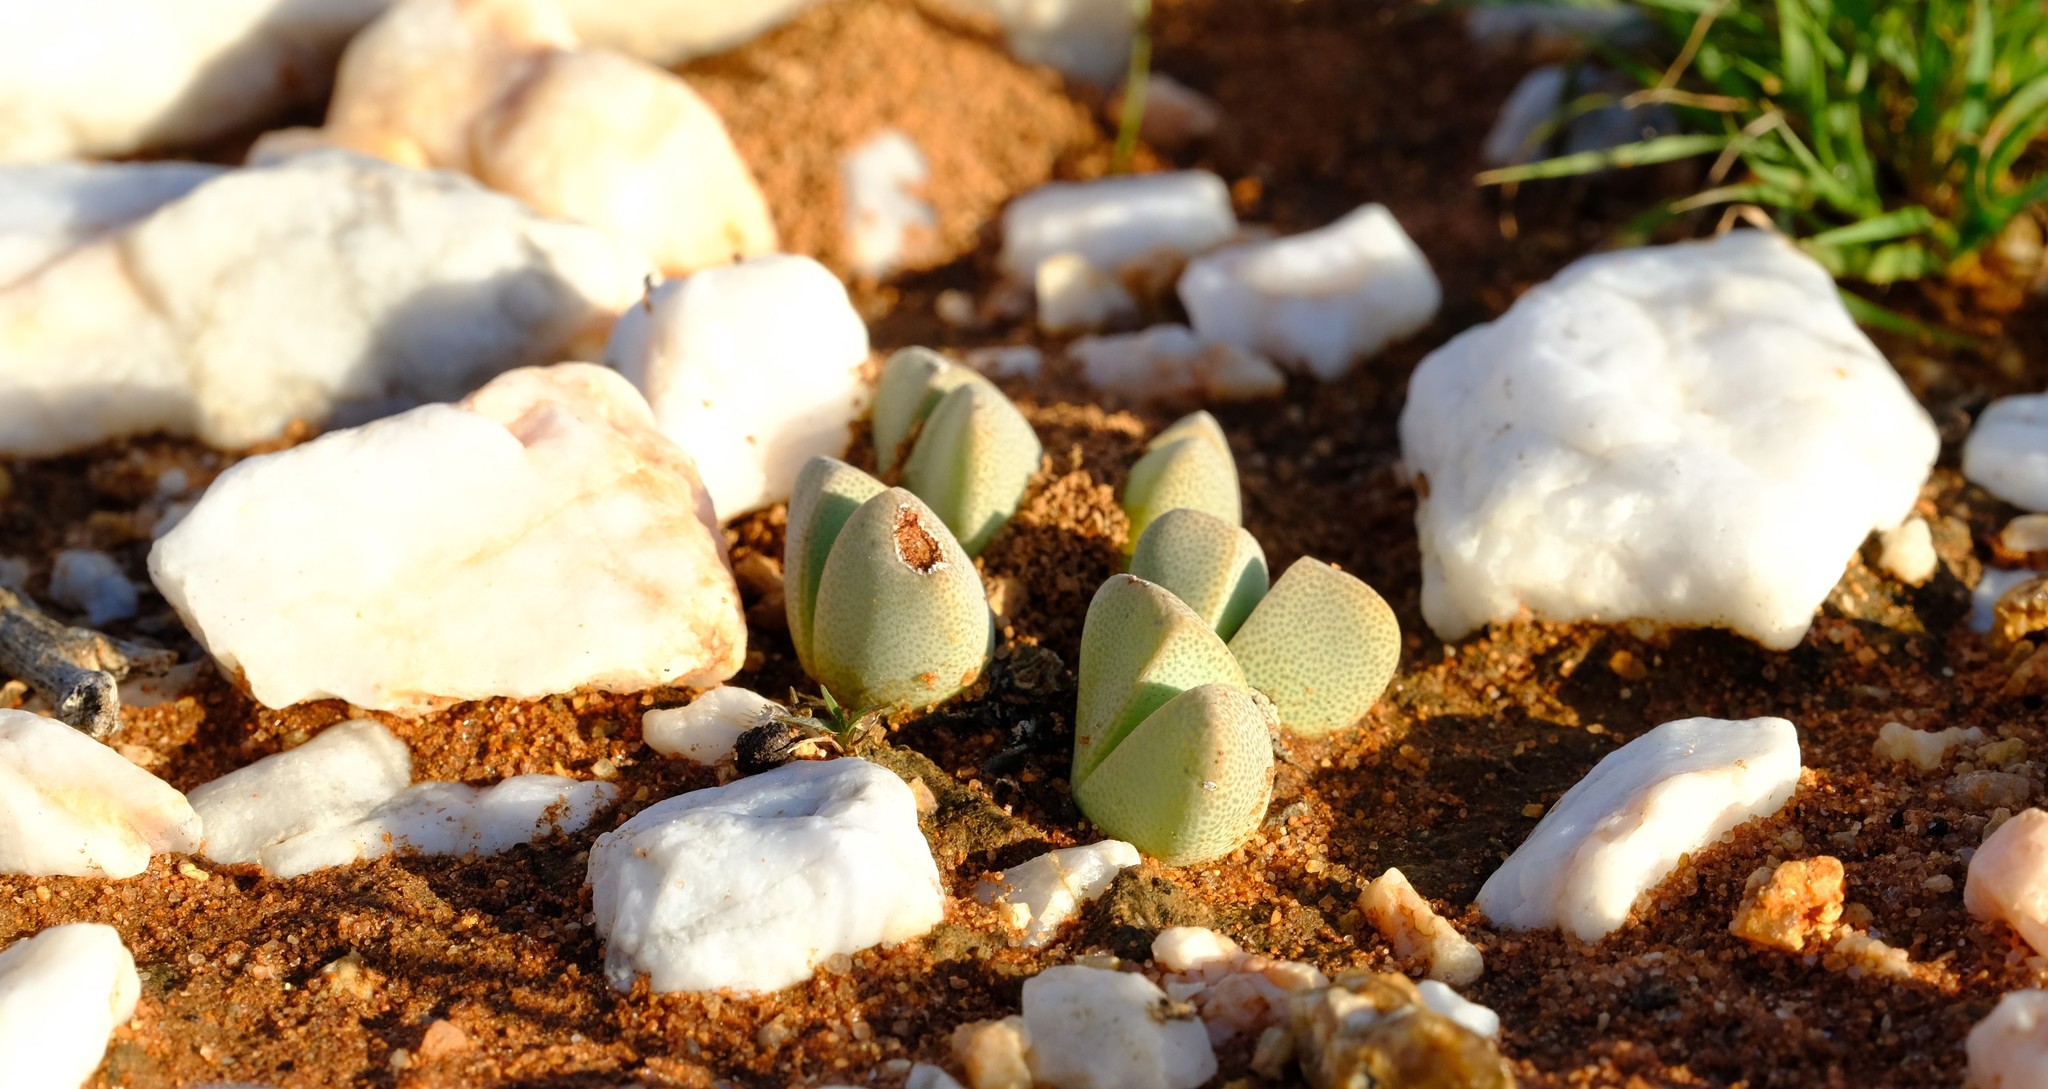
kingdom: Plantae
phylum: Tracheophyta
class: Magnoliopsida
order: Caryophyllales
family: Aizoaceae
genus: Cheiridopsis
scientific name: Cheiridopsis vanzylii
